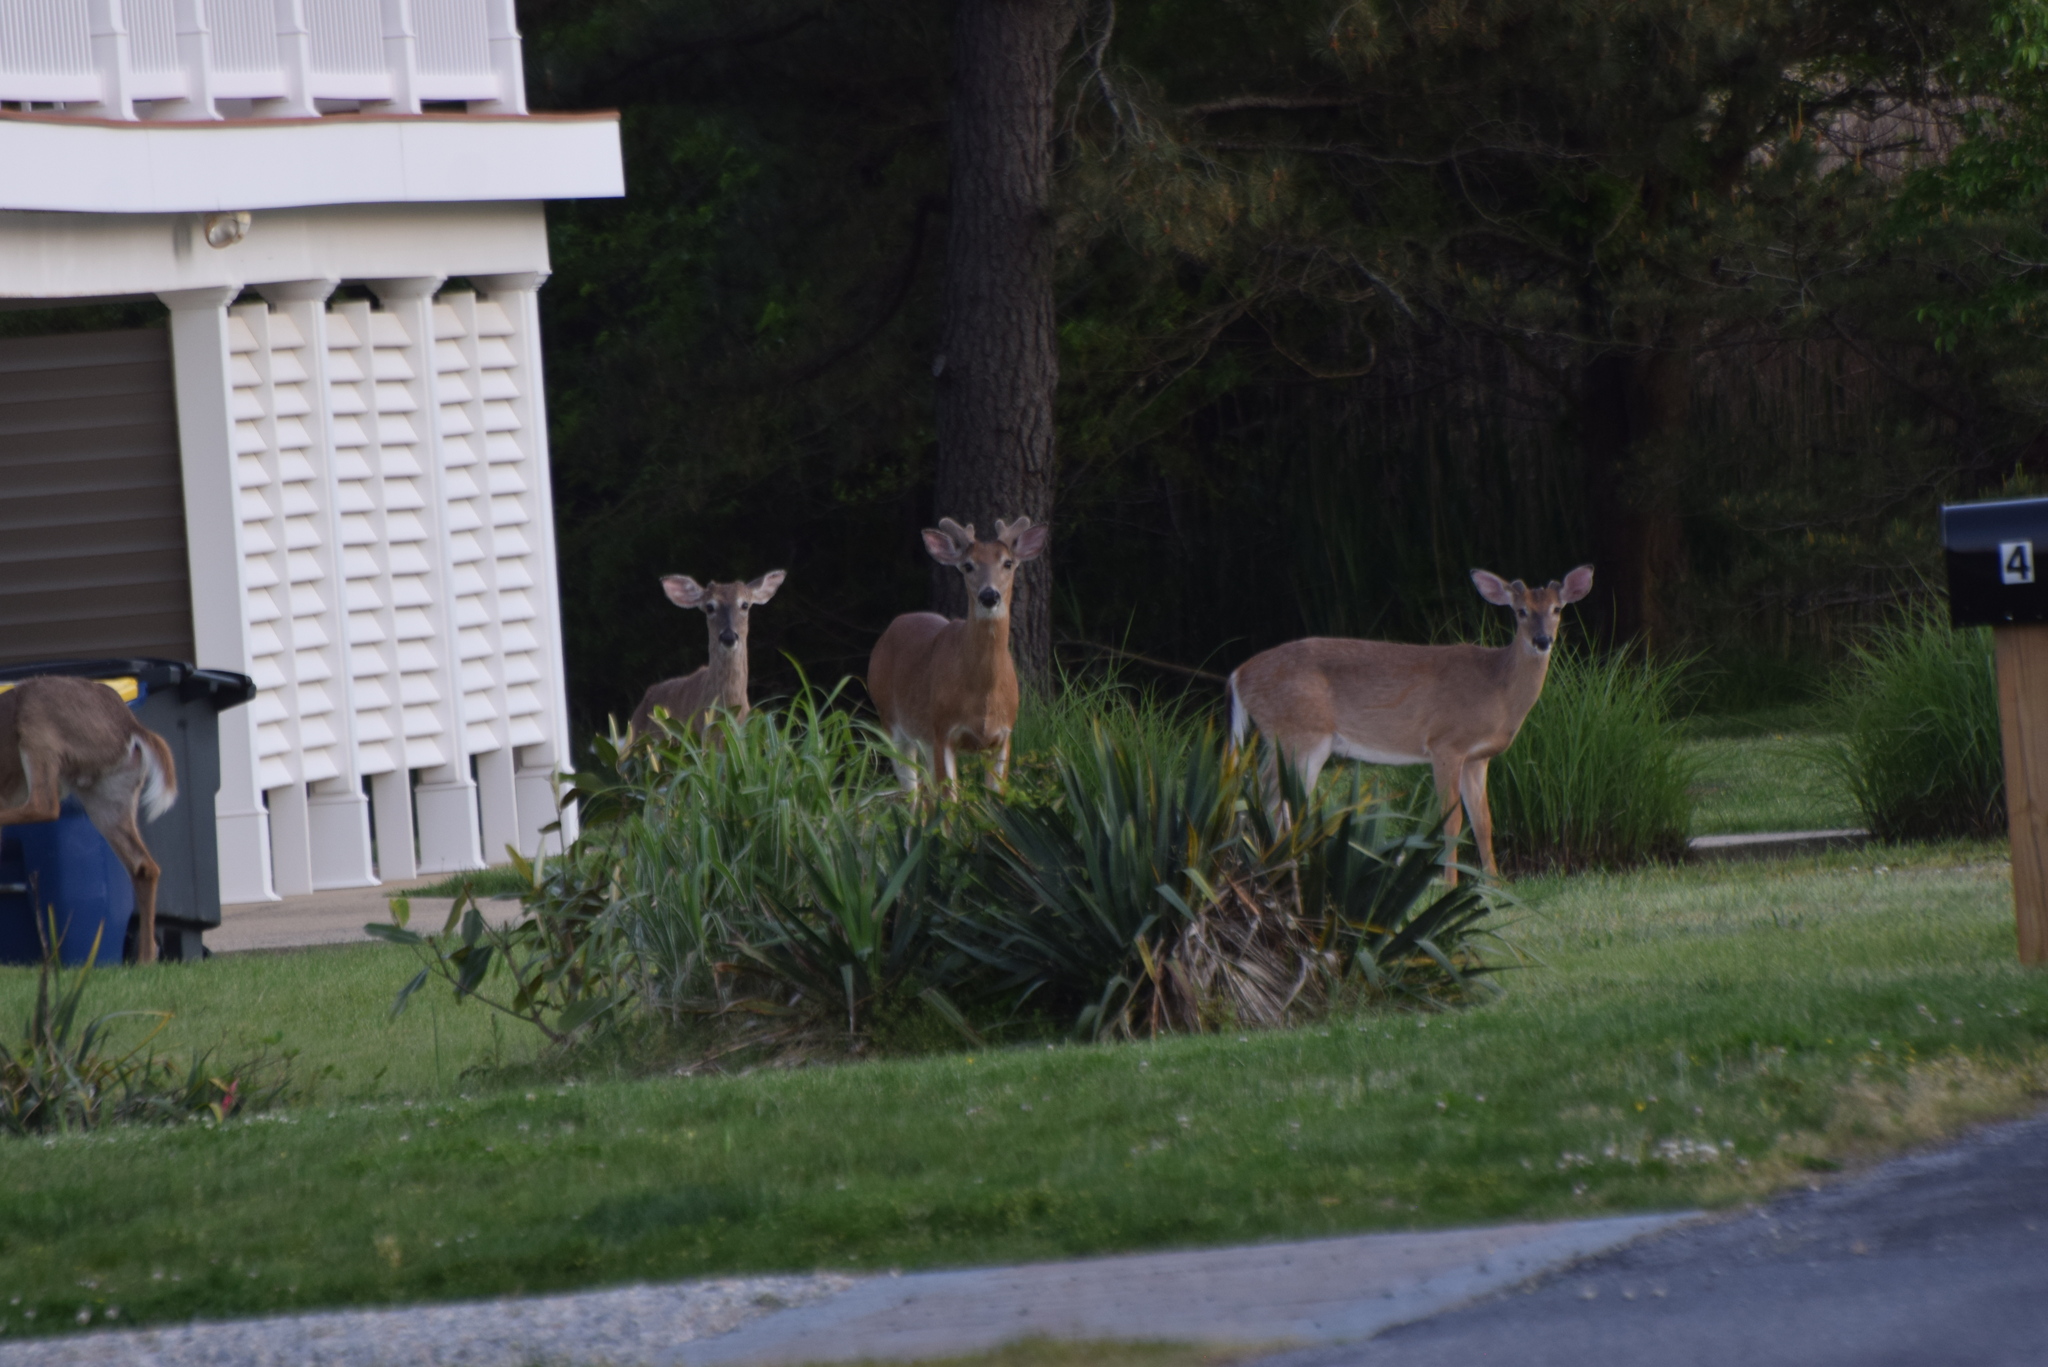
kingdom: Animalia
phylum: Chordata
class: Mammalia
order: Artiodactyla
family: Cervidae
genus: Odocoileus
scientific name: Odocoileus virginianus
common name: White-tailed deer
